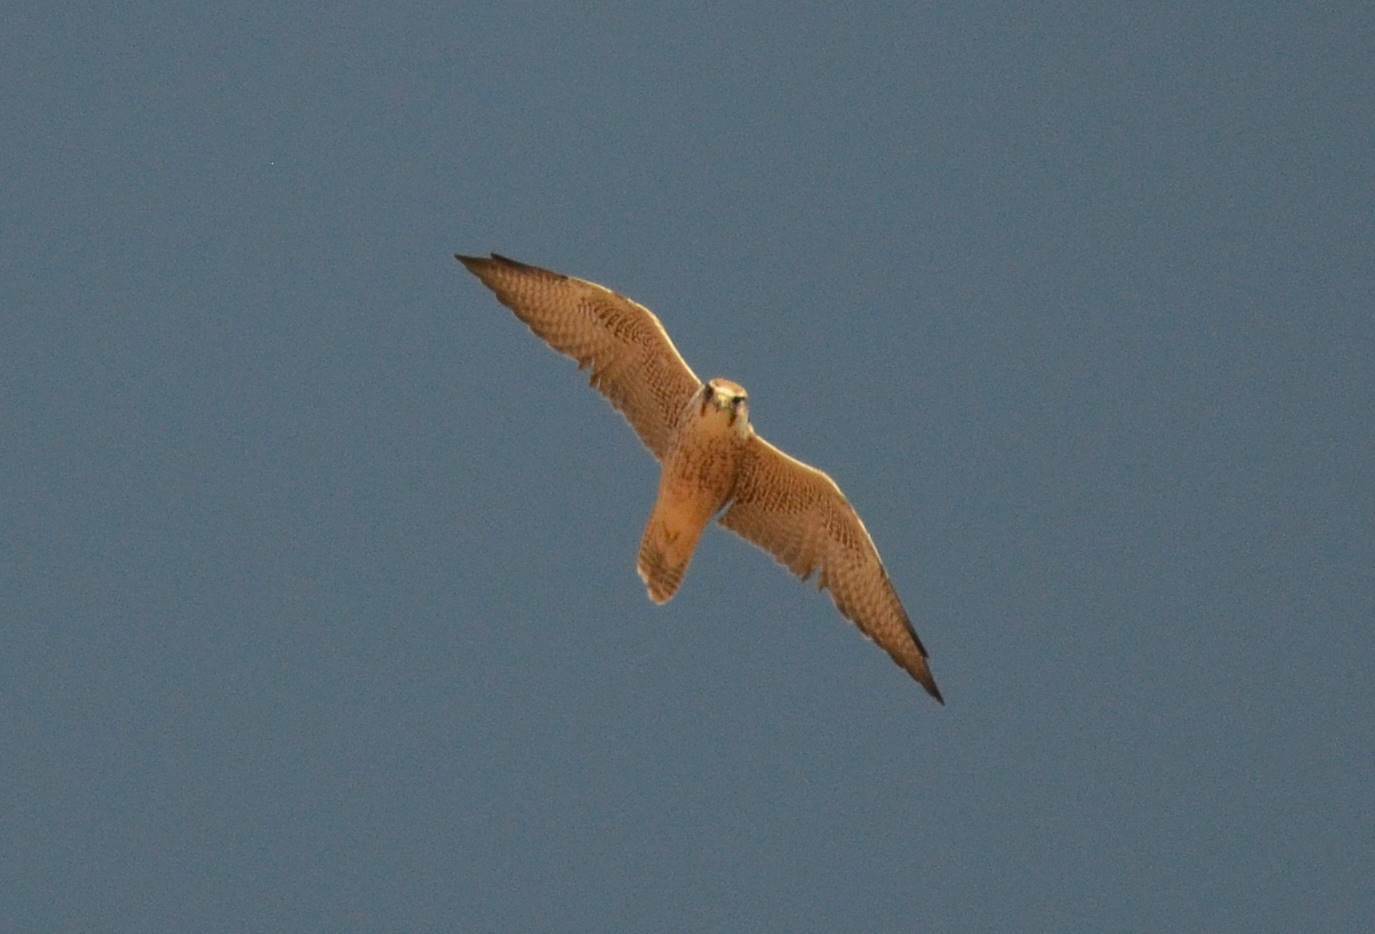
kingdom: Animalia
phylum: Chordata
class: Aves
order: Falconiformes
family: Falconidae
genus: Falco
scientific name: Falco biarmicus
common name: Lanner falcon
